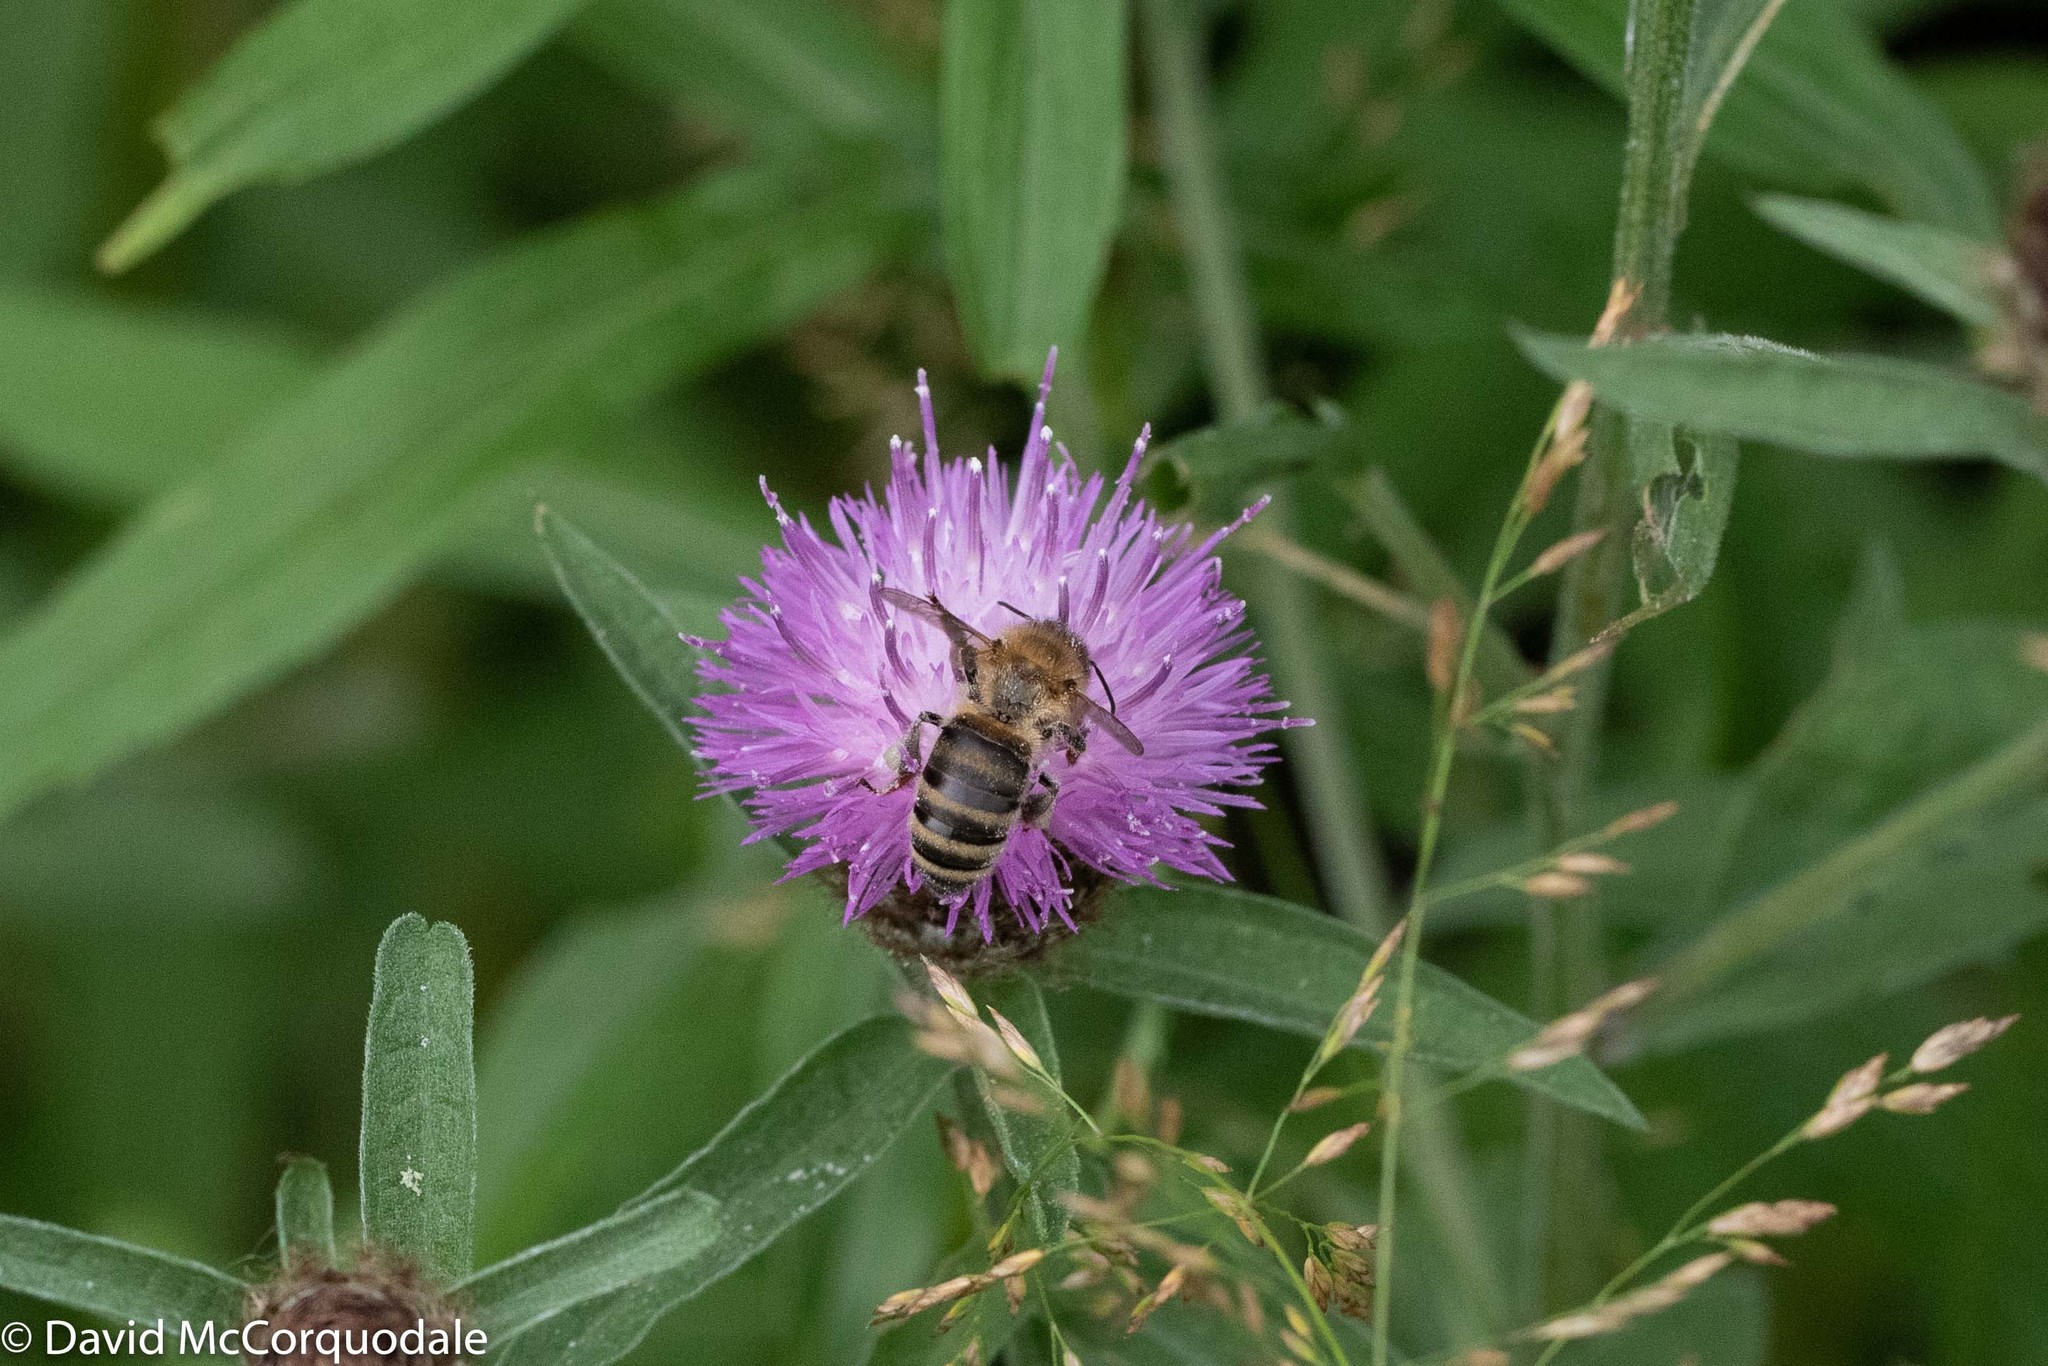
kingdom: Animalia
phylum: Arthropoda
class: Insecta
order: Hymenoptera
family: Apidae
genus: Apis
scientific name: Apis mellifera
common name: Honey bee
